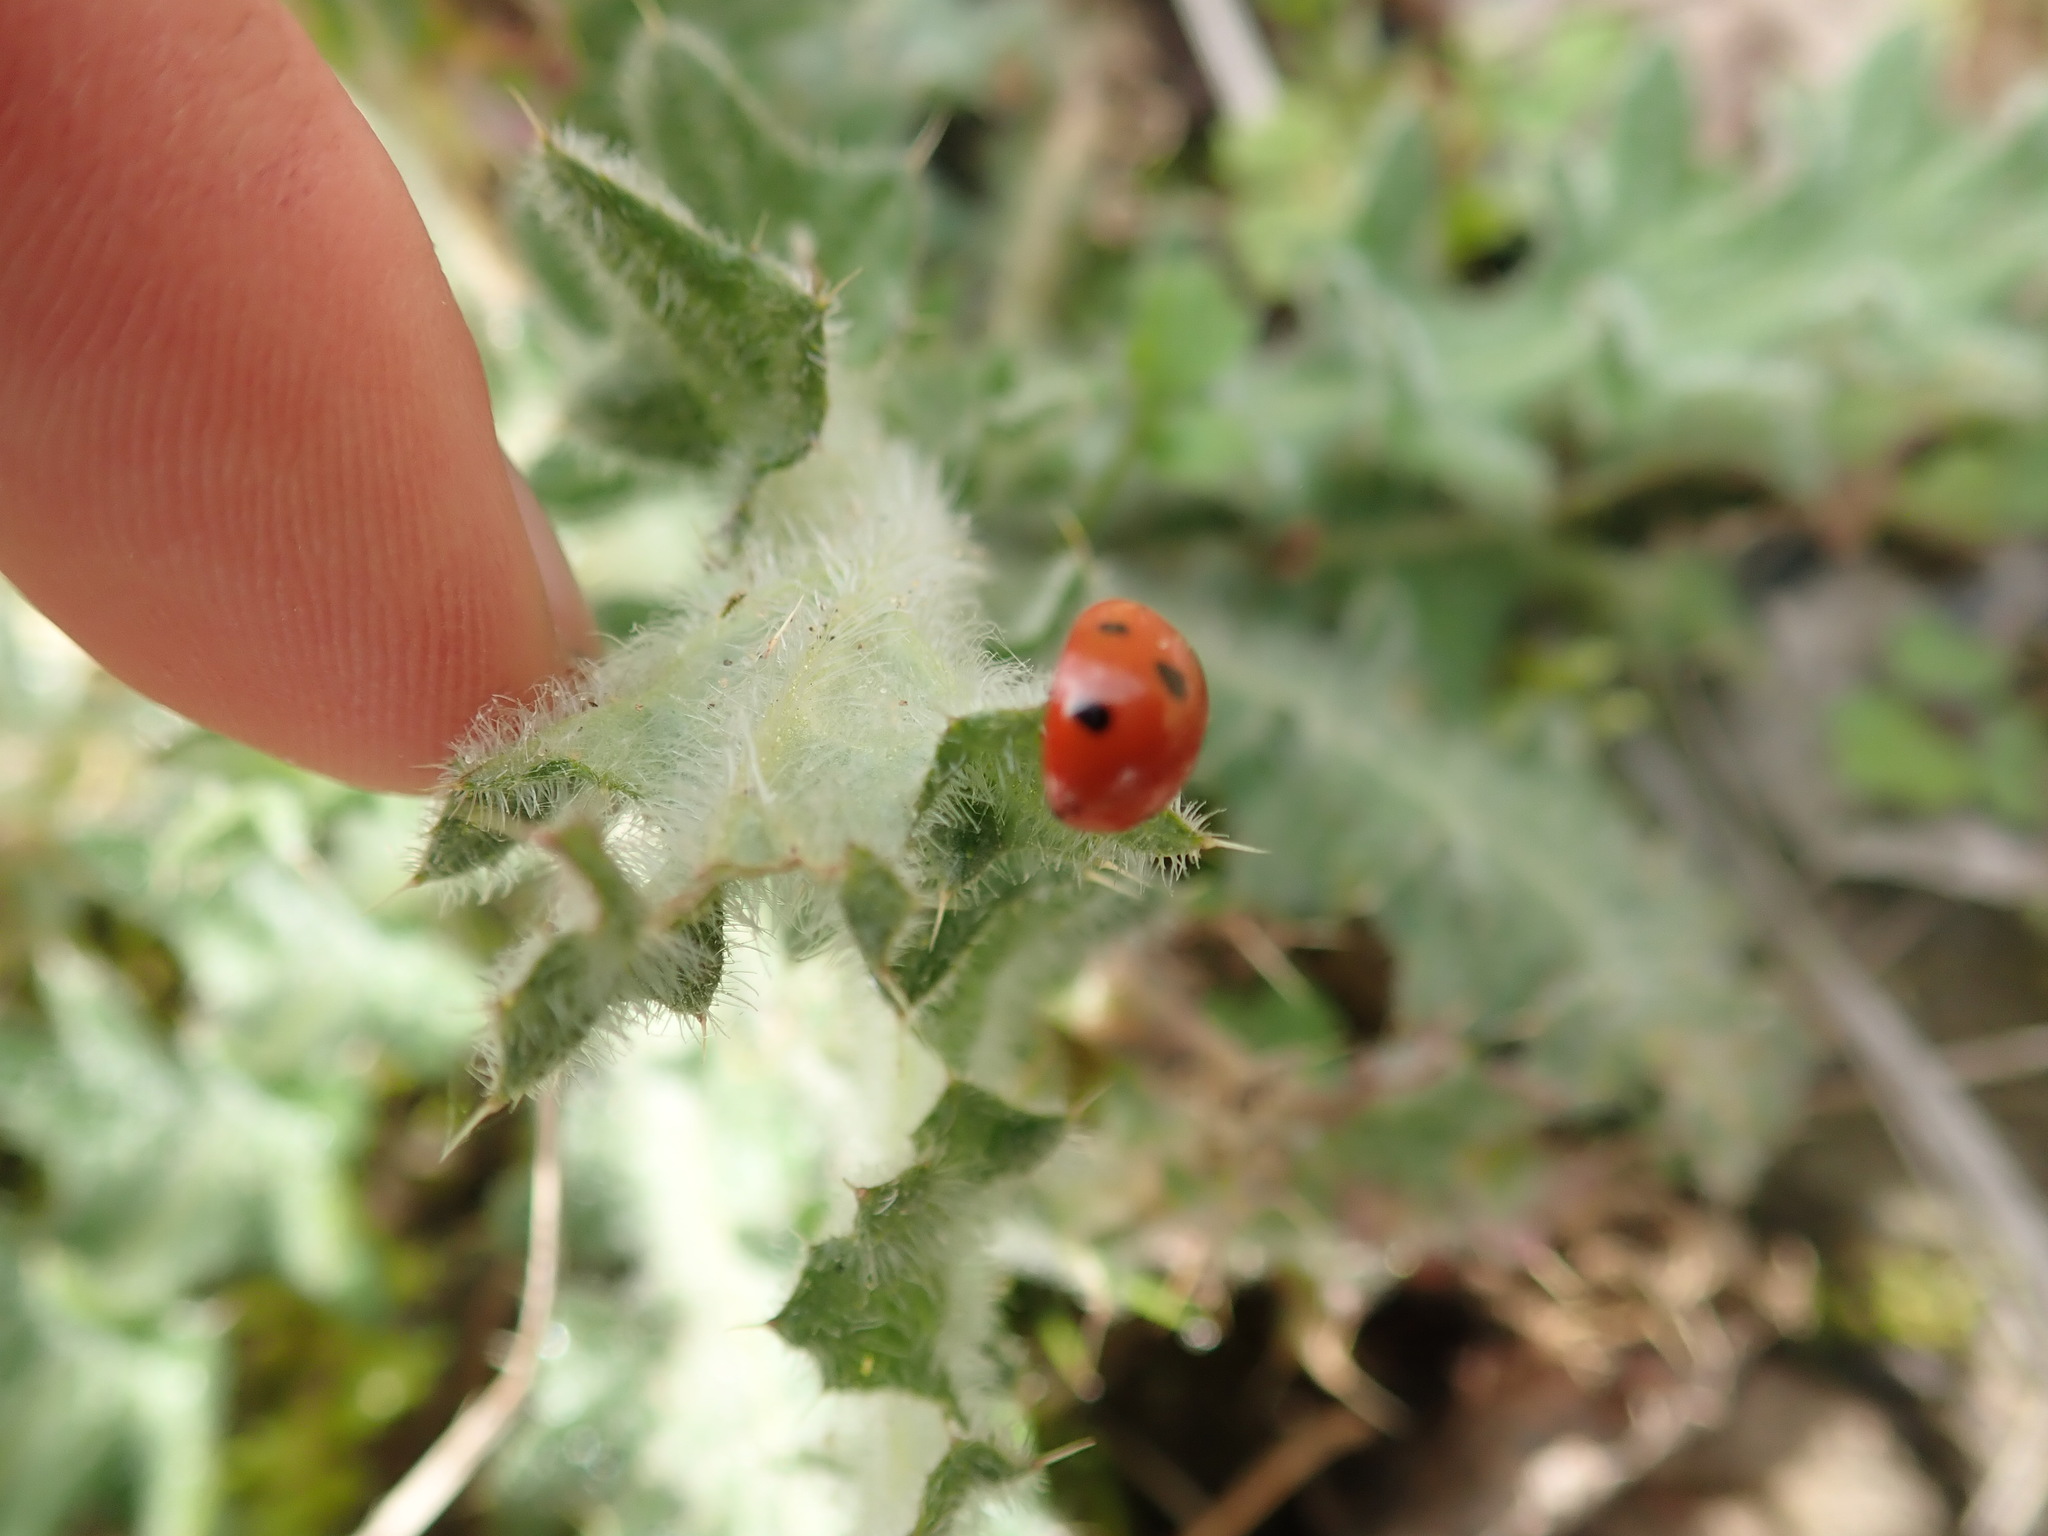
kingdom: Animalia
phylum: Arthropoda
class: Insecta
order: Coleoptera
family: Coccinellidae
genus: Coccinella
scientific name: Coccinella septempunctata
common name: Sevenspotted lady beetle
